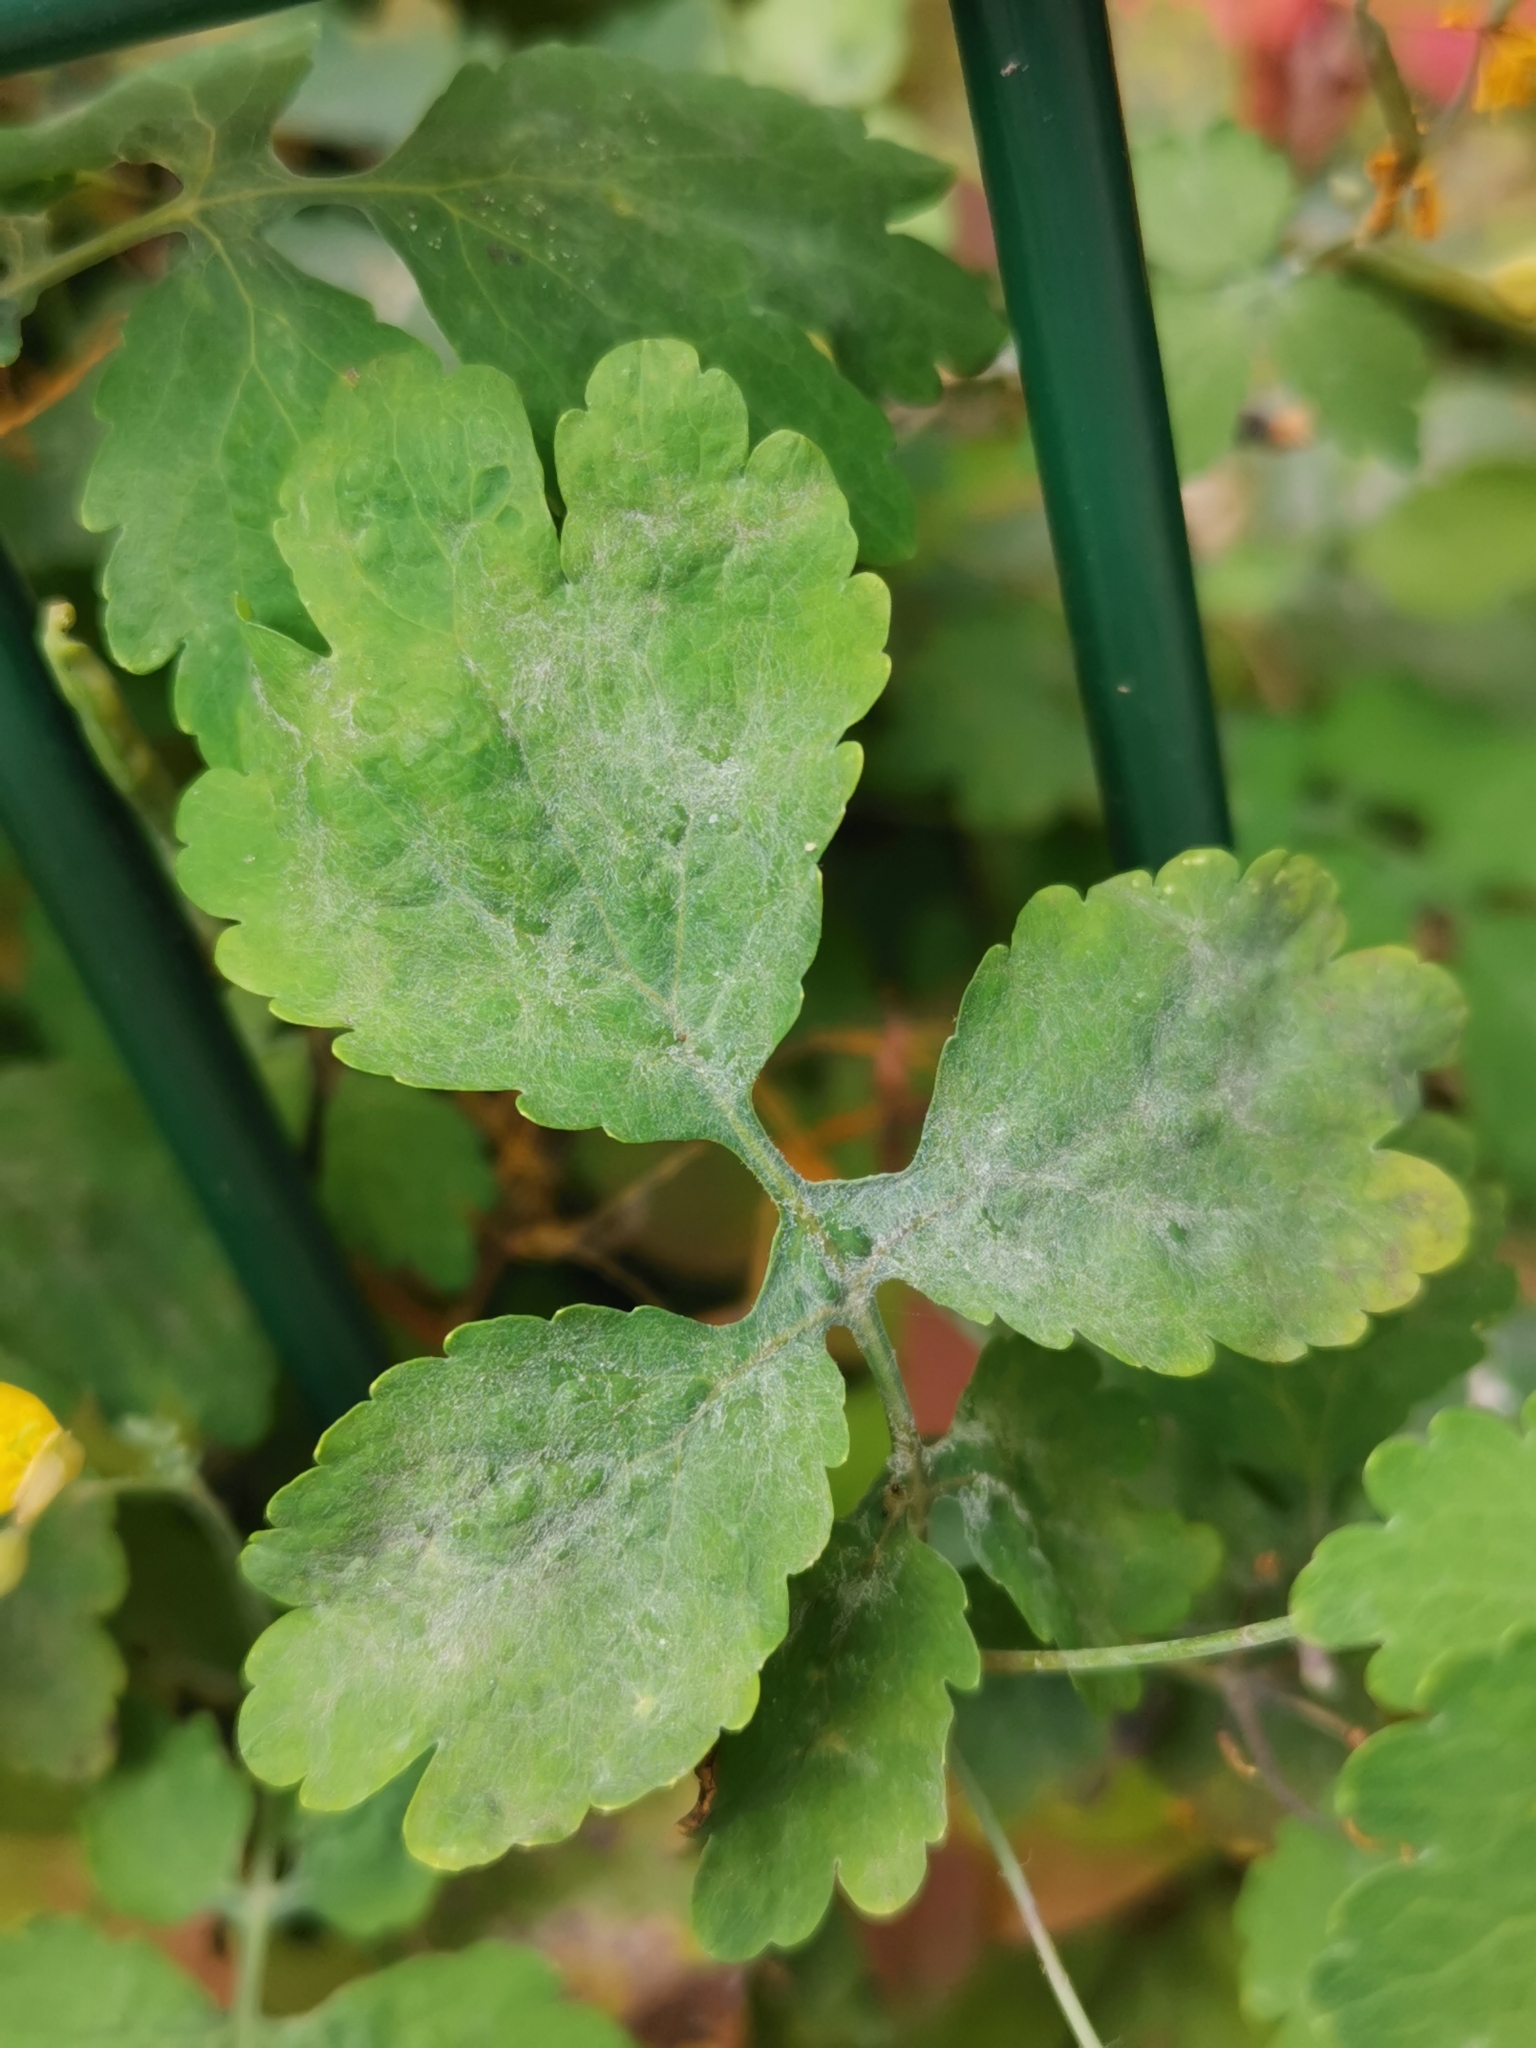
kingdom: Fungi
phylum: Ascomycota
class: Leotiomycetes
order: Helotiales
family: Erysiphaceae
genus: Erysiphe
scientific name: Erysiphe macleayae
